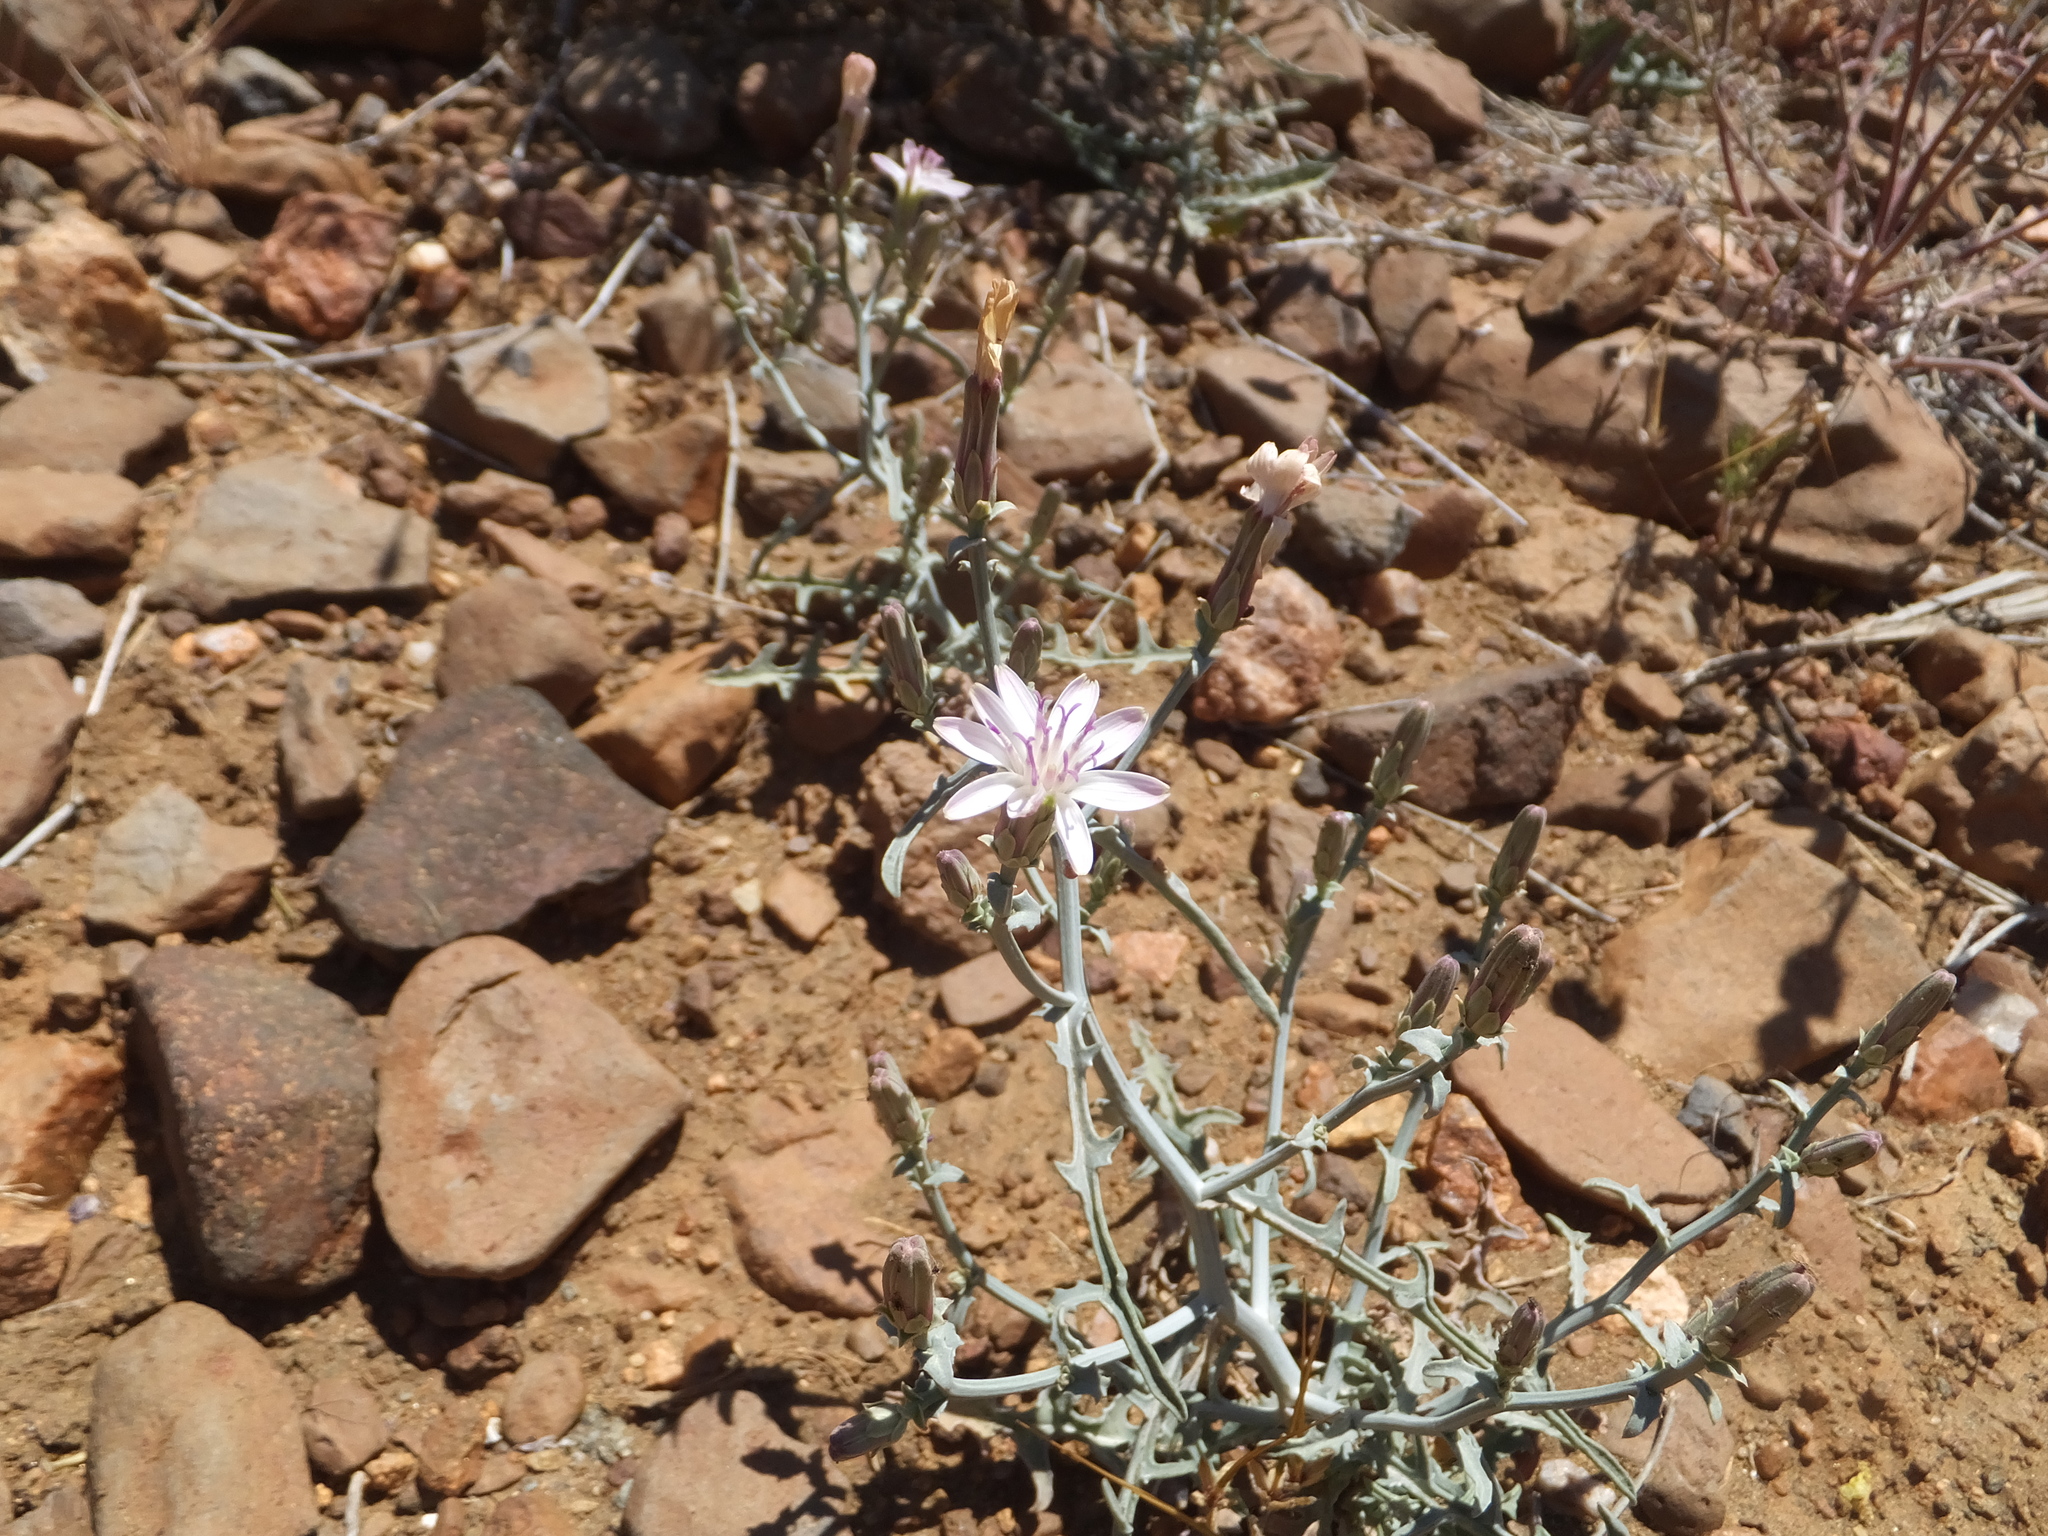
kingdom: Plantae
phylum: Tracheophyta
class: Magnoliopsida
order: Asterales
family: Asteraceae
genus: Stephanomeria
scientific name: Stephanomeria parryi
